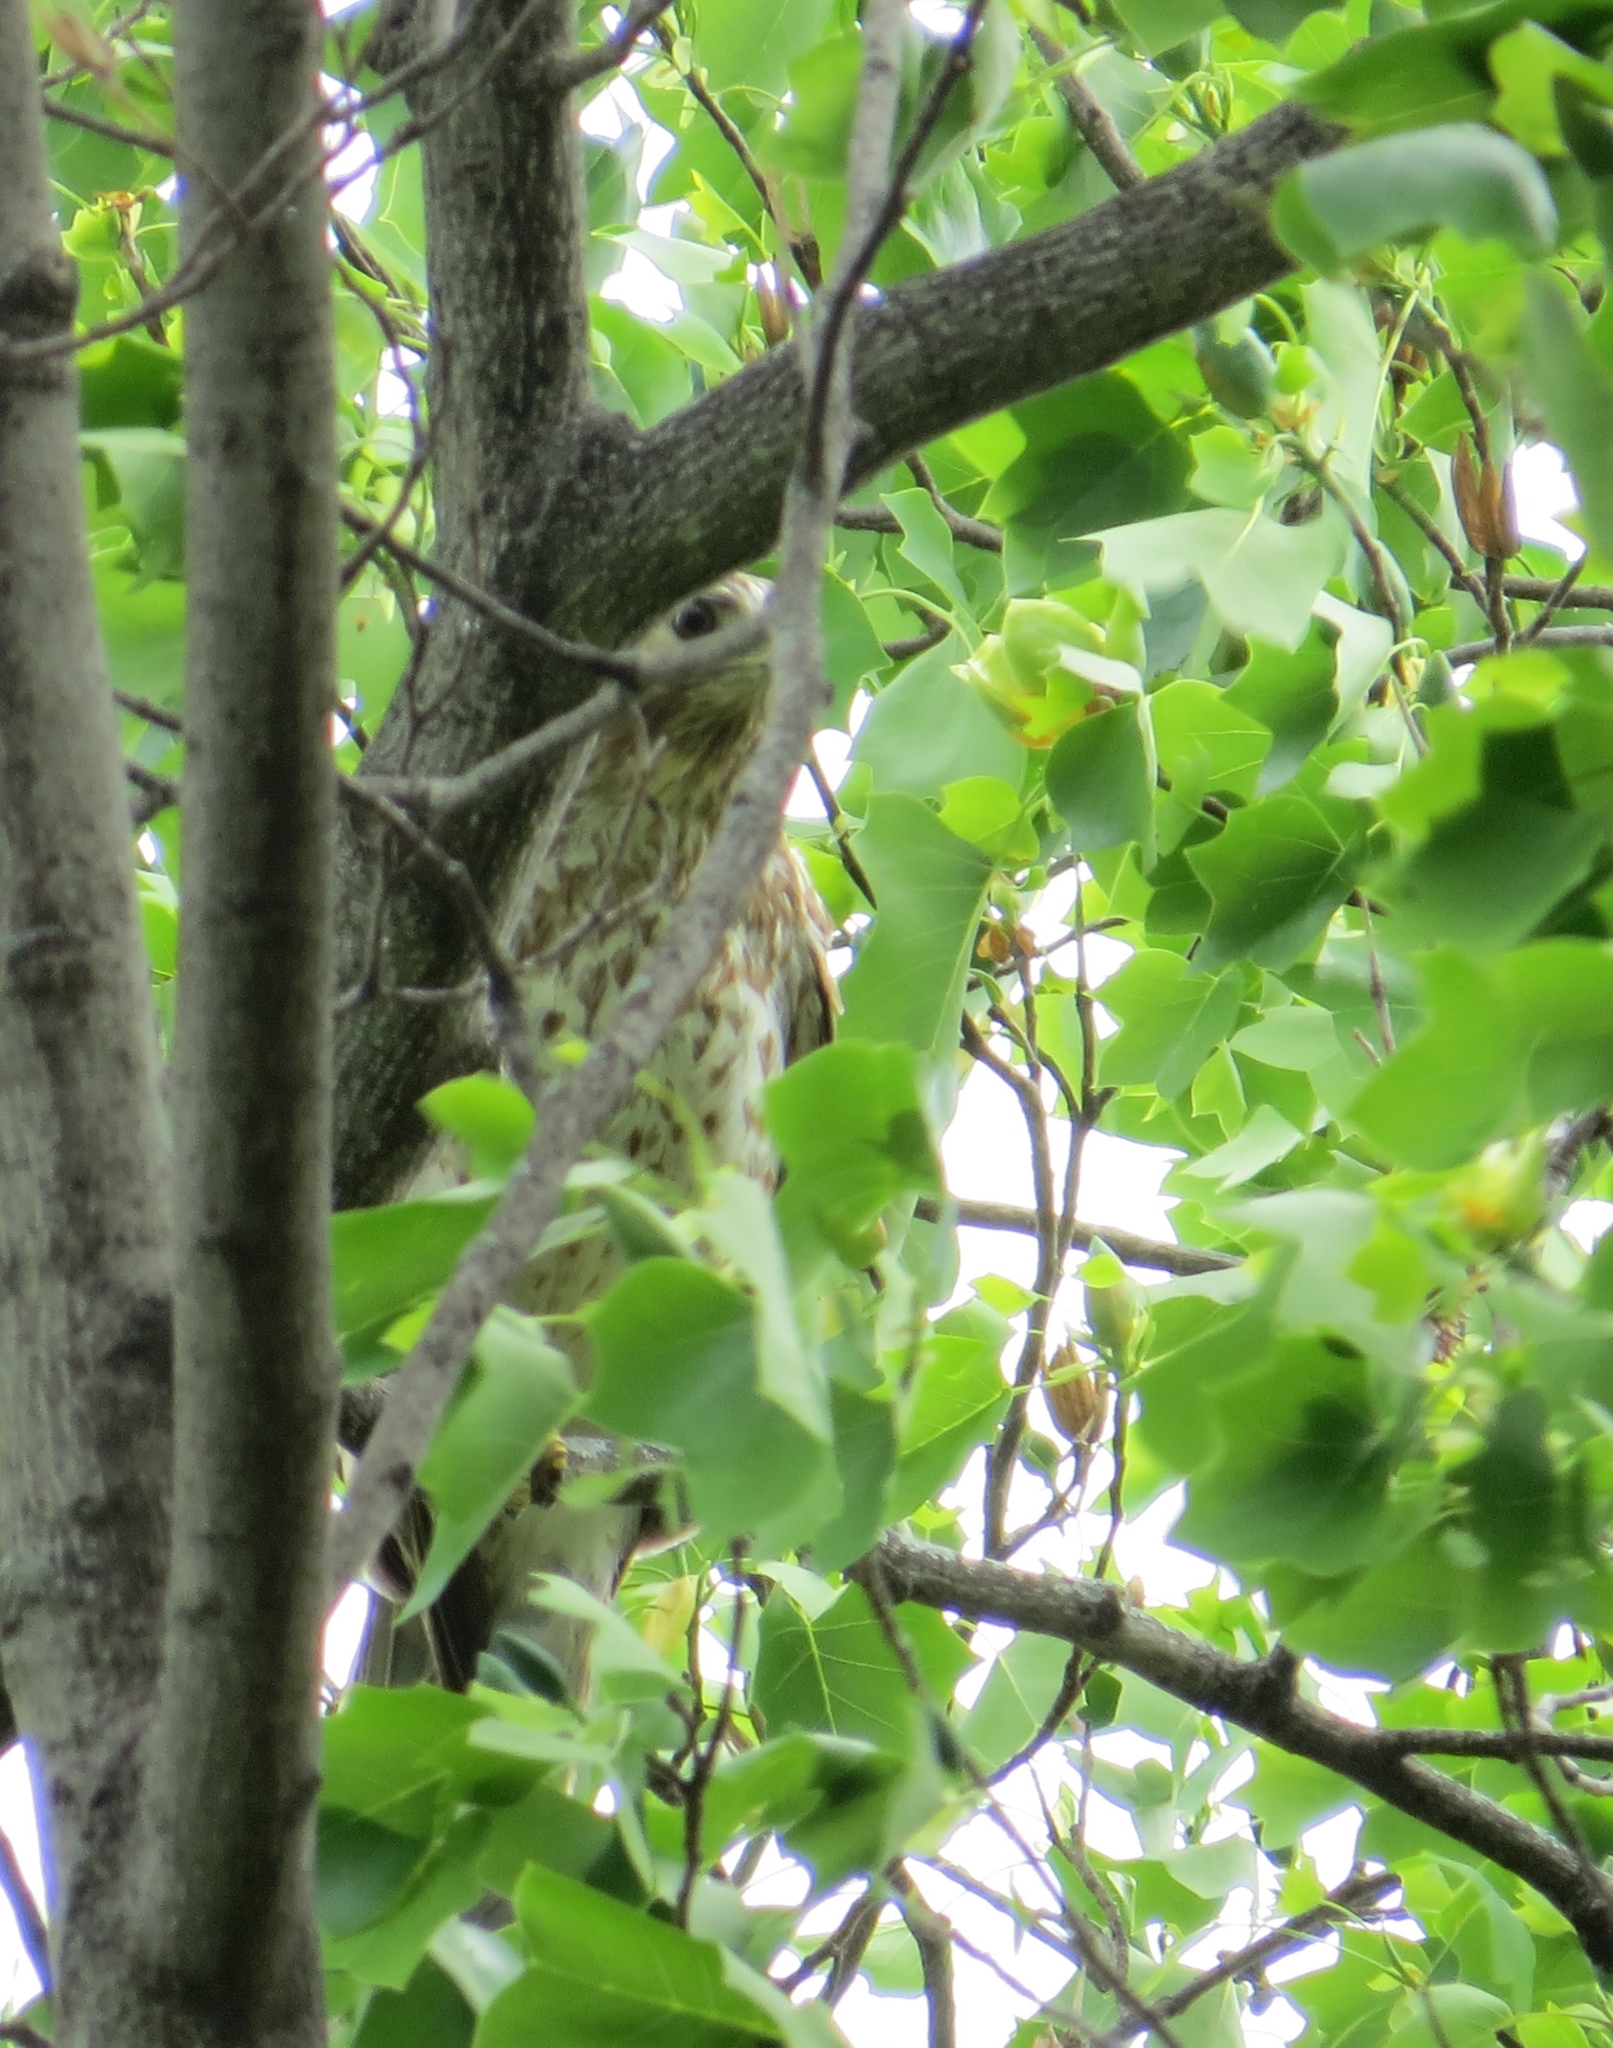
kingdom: Animalia
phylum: Chordata
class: Aves
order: Accipitriformes
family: Accipitridae
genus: Buteo
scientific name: Buteo lineatus
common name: Red-shouldered hawk
